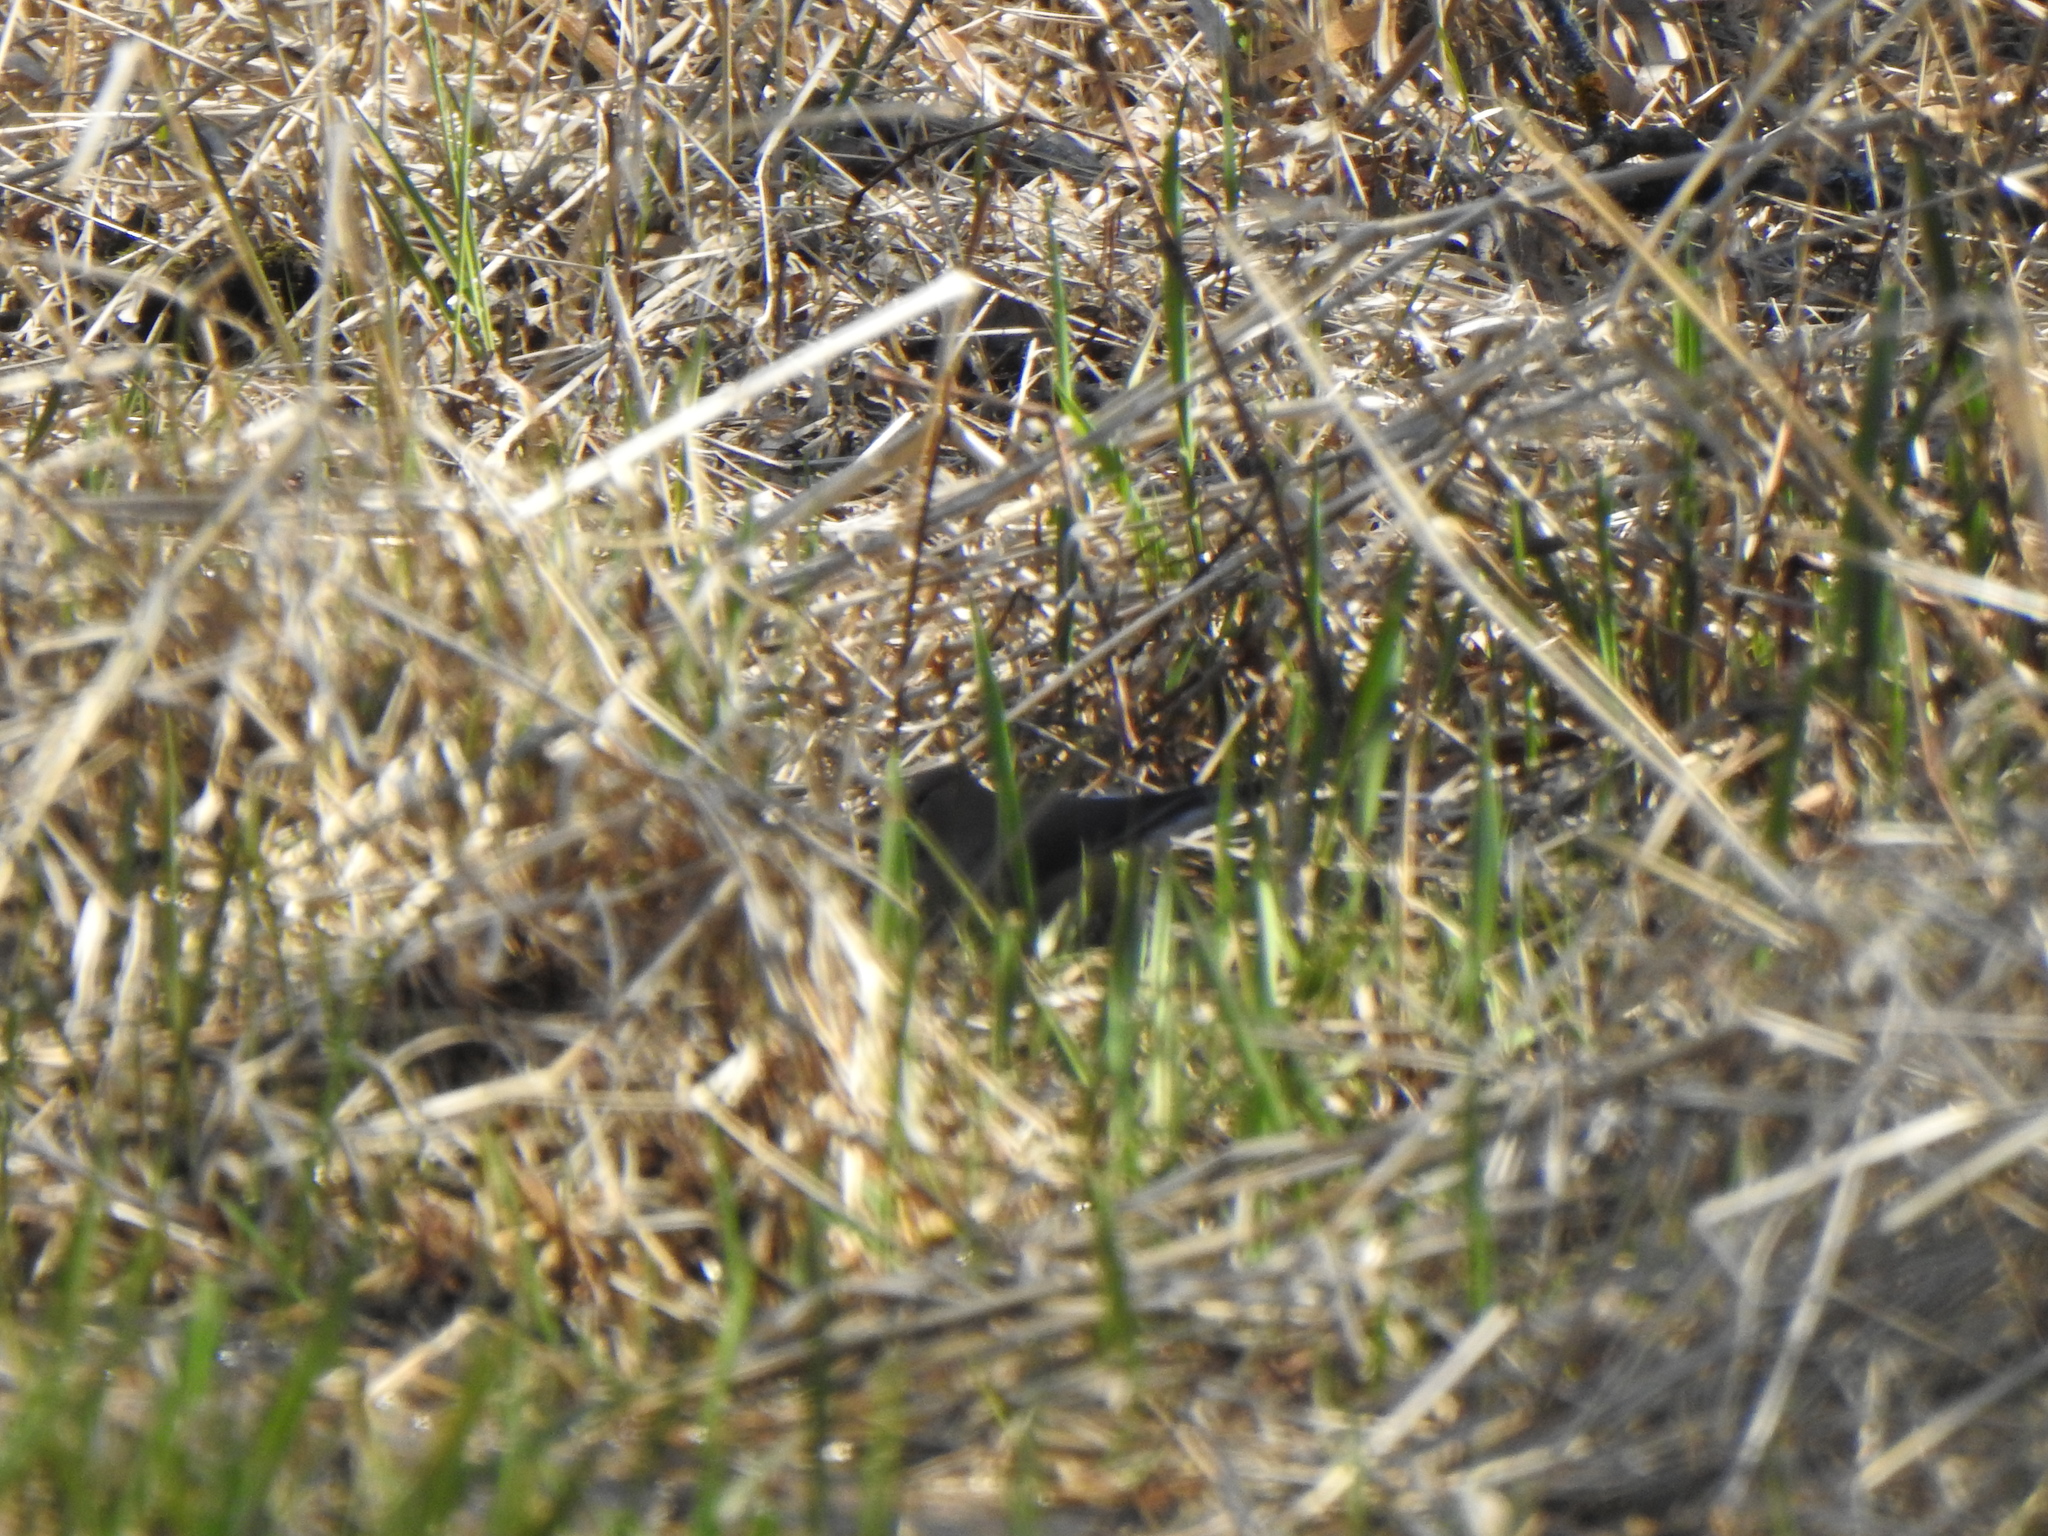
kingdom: Animalia
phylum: Chordata
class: Aves
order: Passeriformes
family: Bombycillidae
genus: Bombycilla
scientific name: Bombycilla cedrorum
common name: Cedar waxwing
